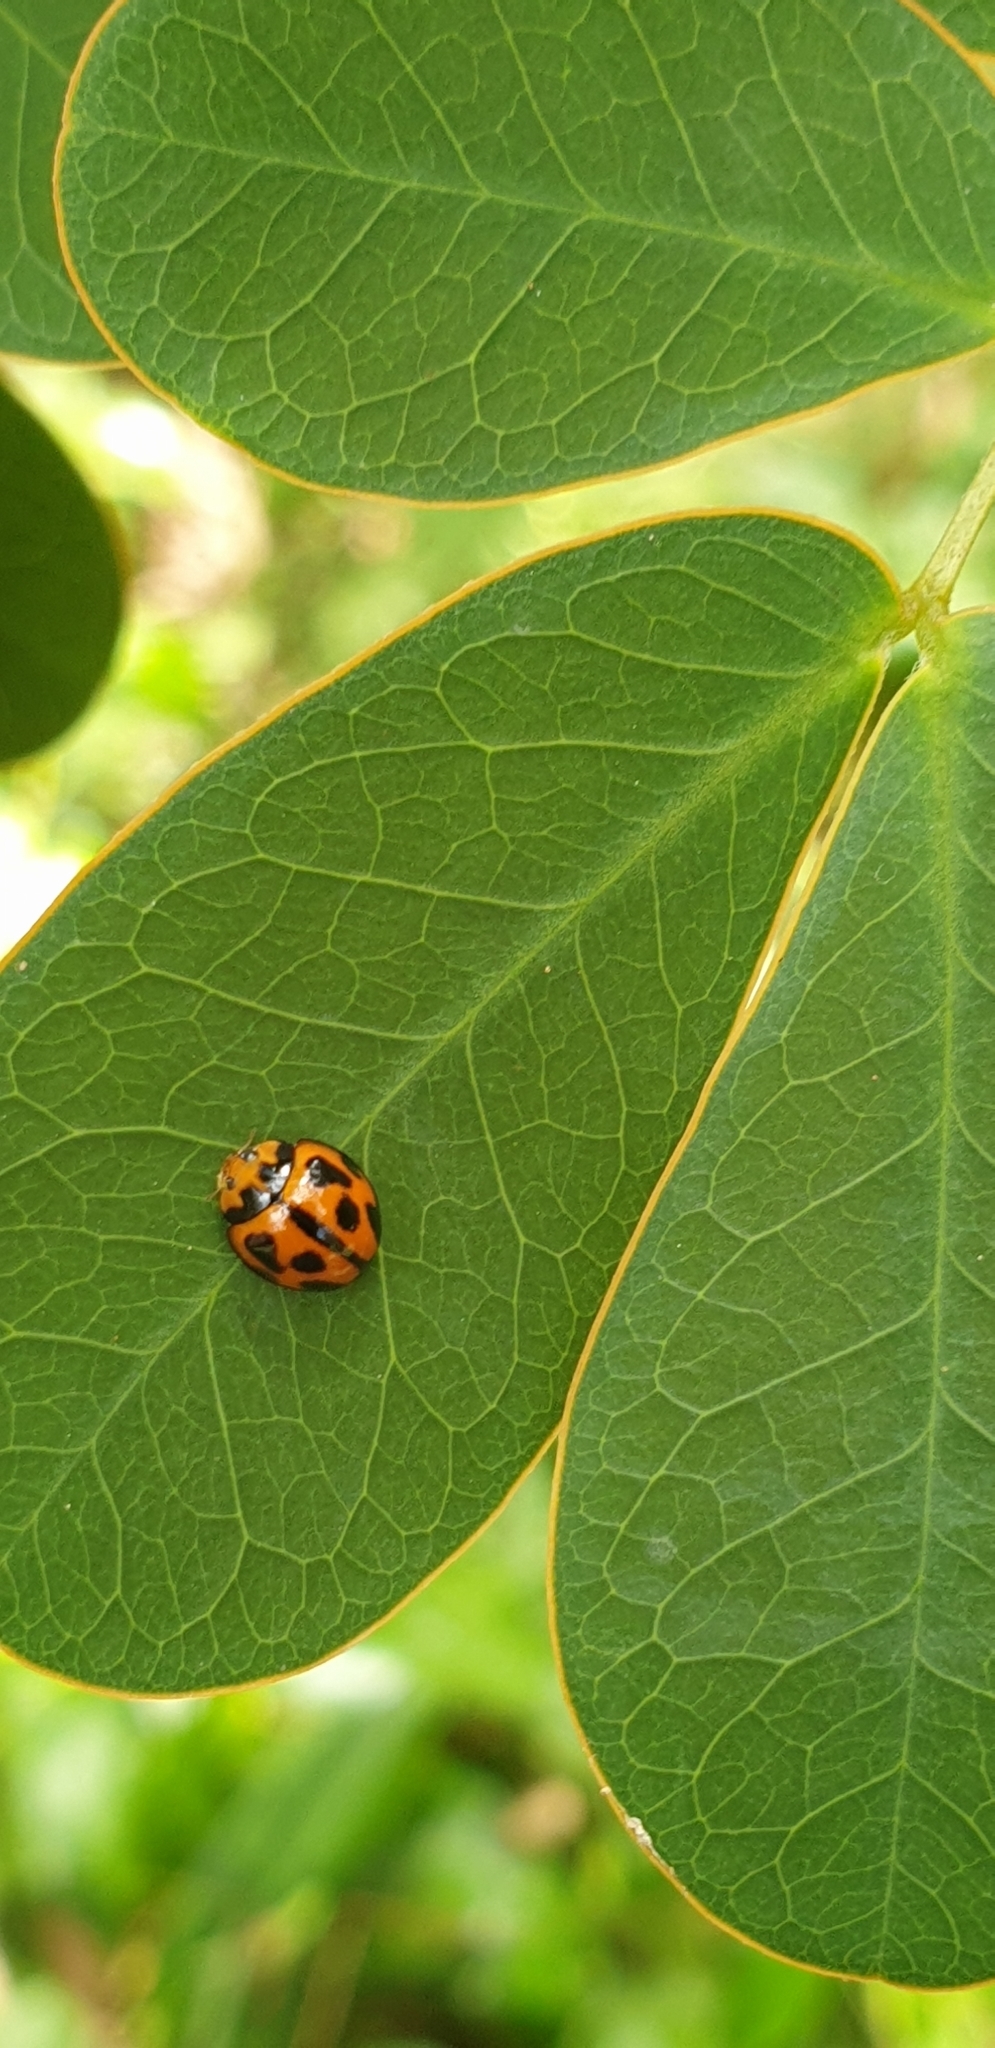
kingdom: Animalia
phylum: Arthropoda
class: Insecta
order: Coleoptera
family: Coccinellidae
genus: Coelophora
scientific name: Coelophora inaequalis
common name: Common australian lady beetle
